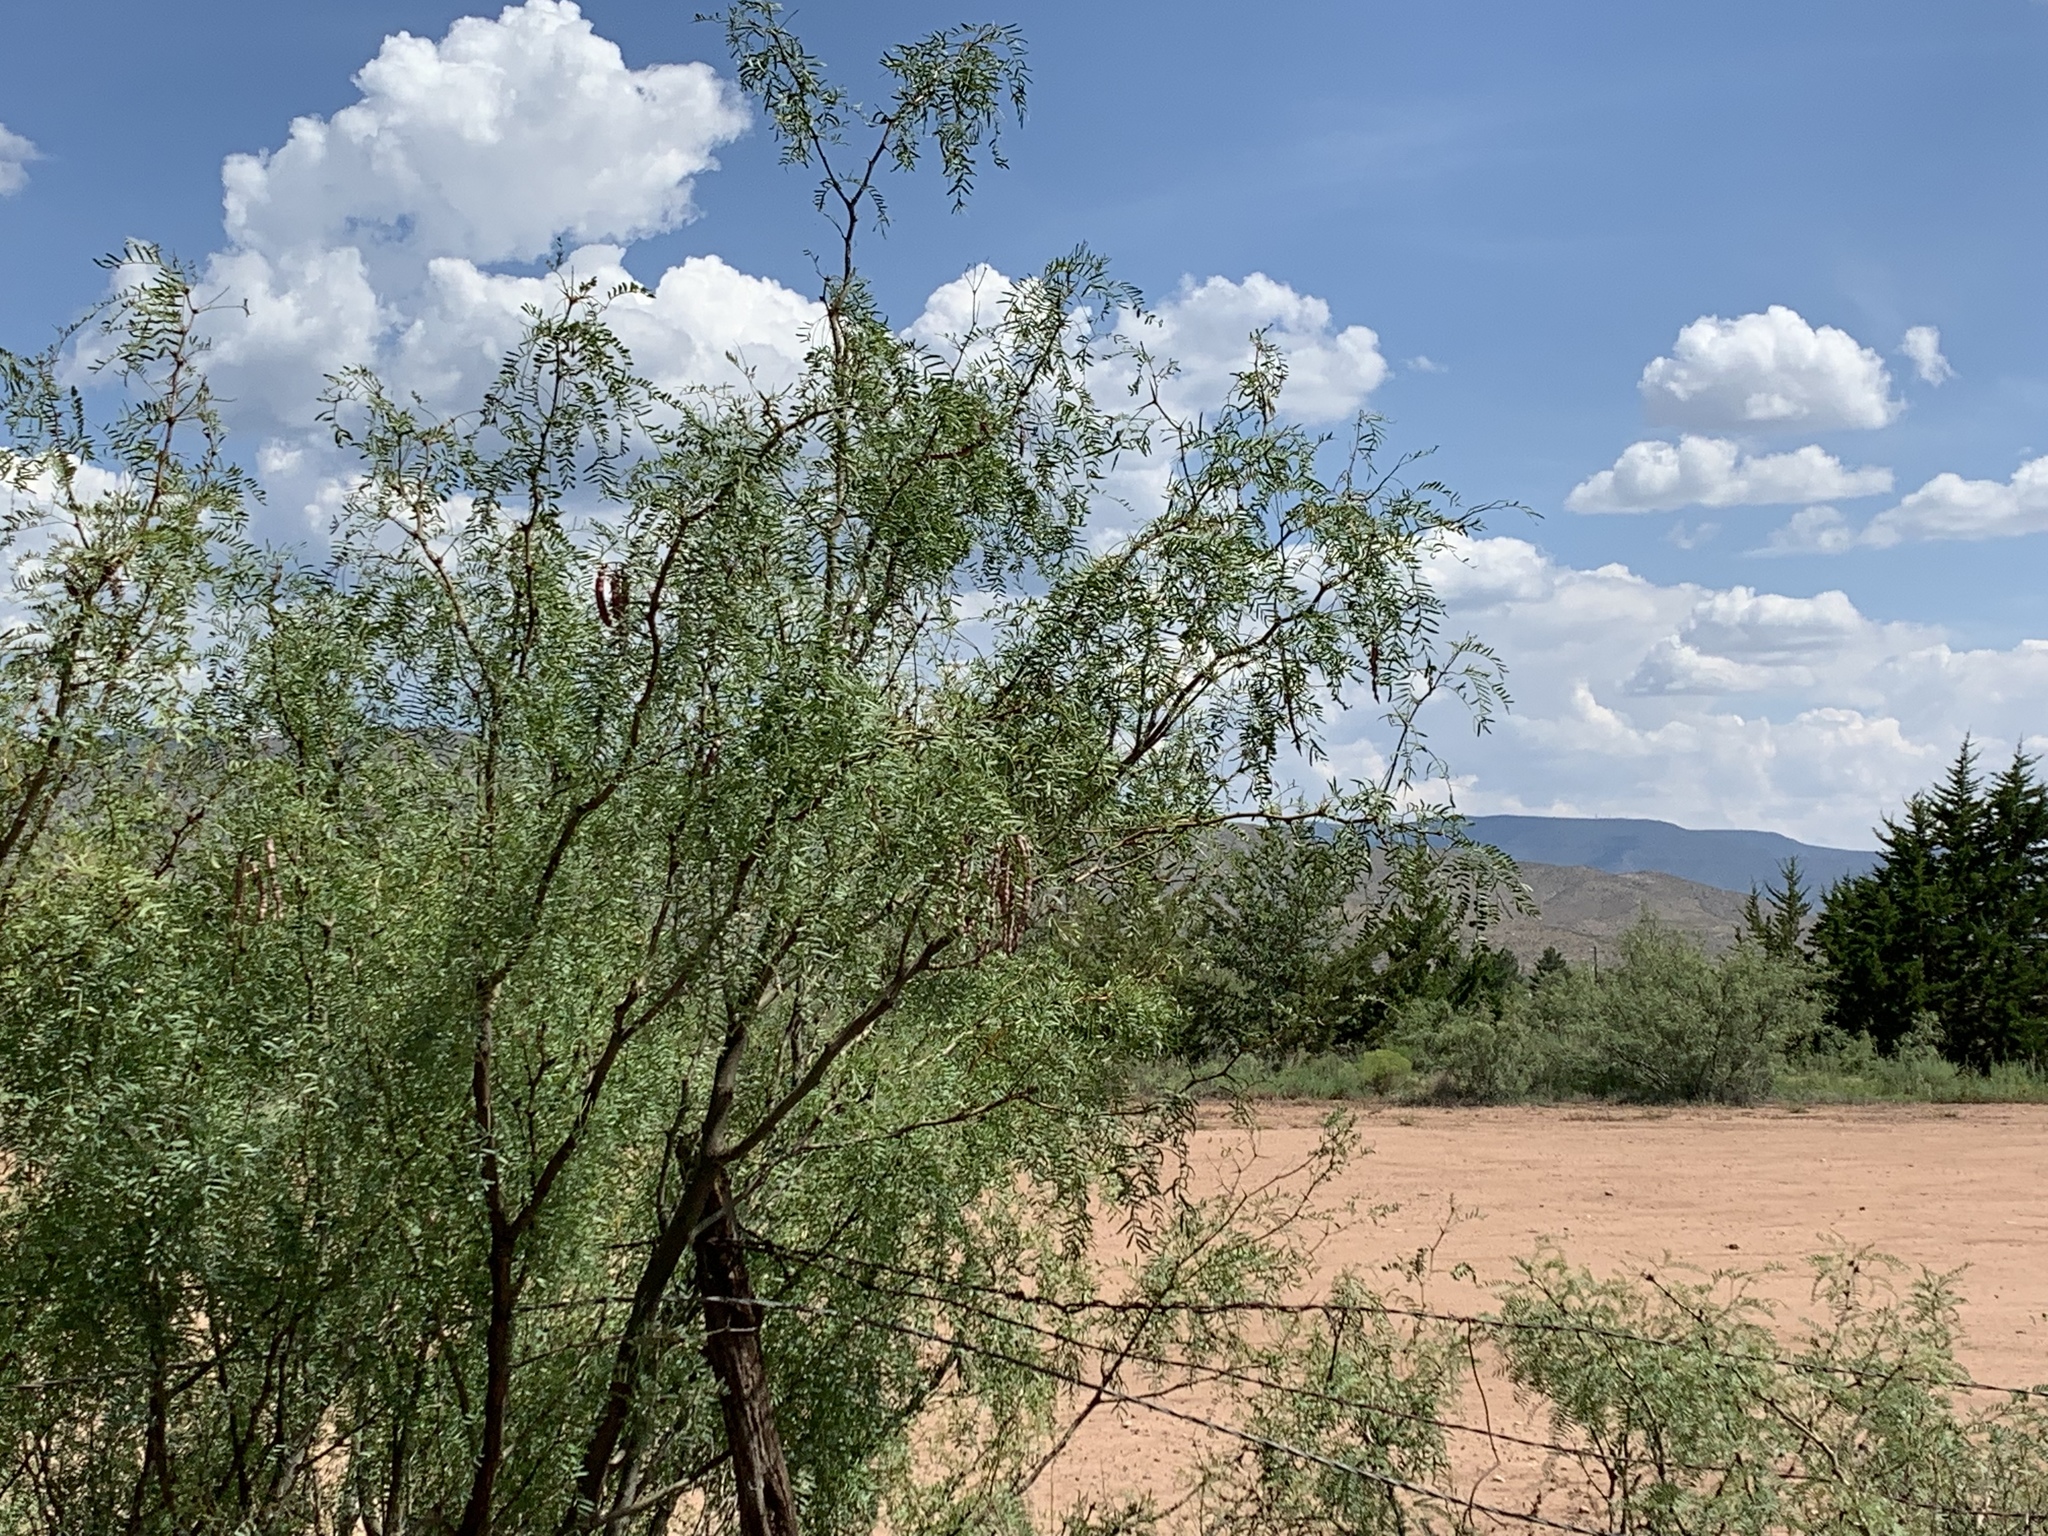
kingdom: Plantae
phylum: Tracheophyta
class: Magnoliopsida
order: Fabales
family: Fabaceae
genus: Prosopis
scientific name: Prosopis glandulosa
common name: Honey mesquite
